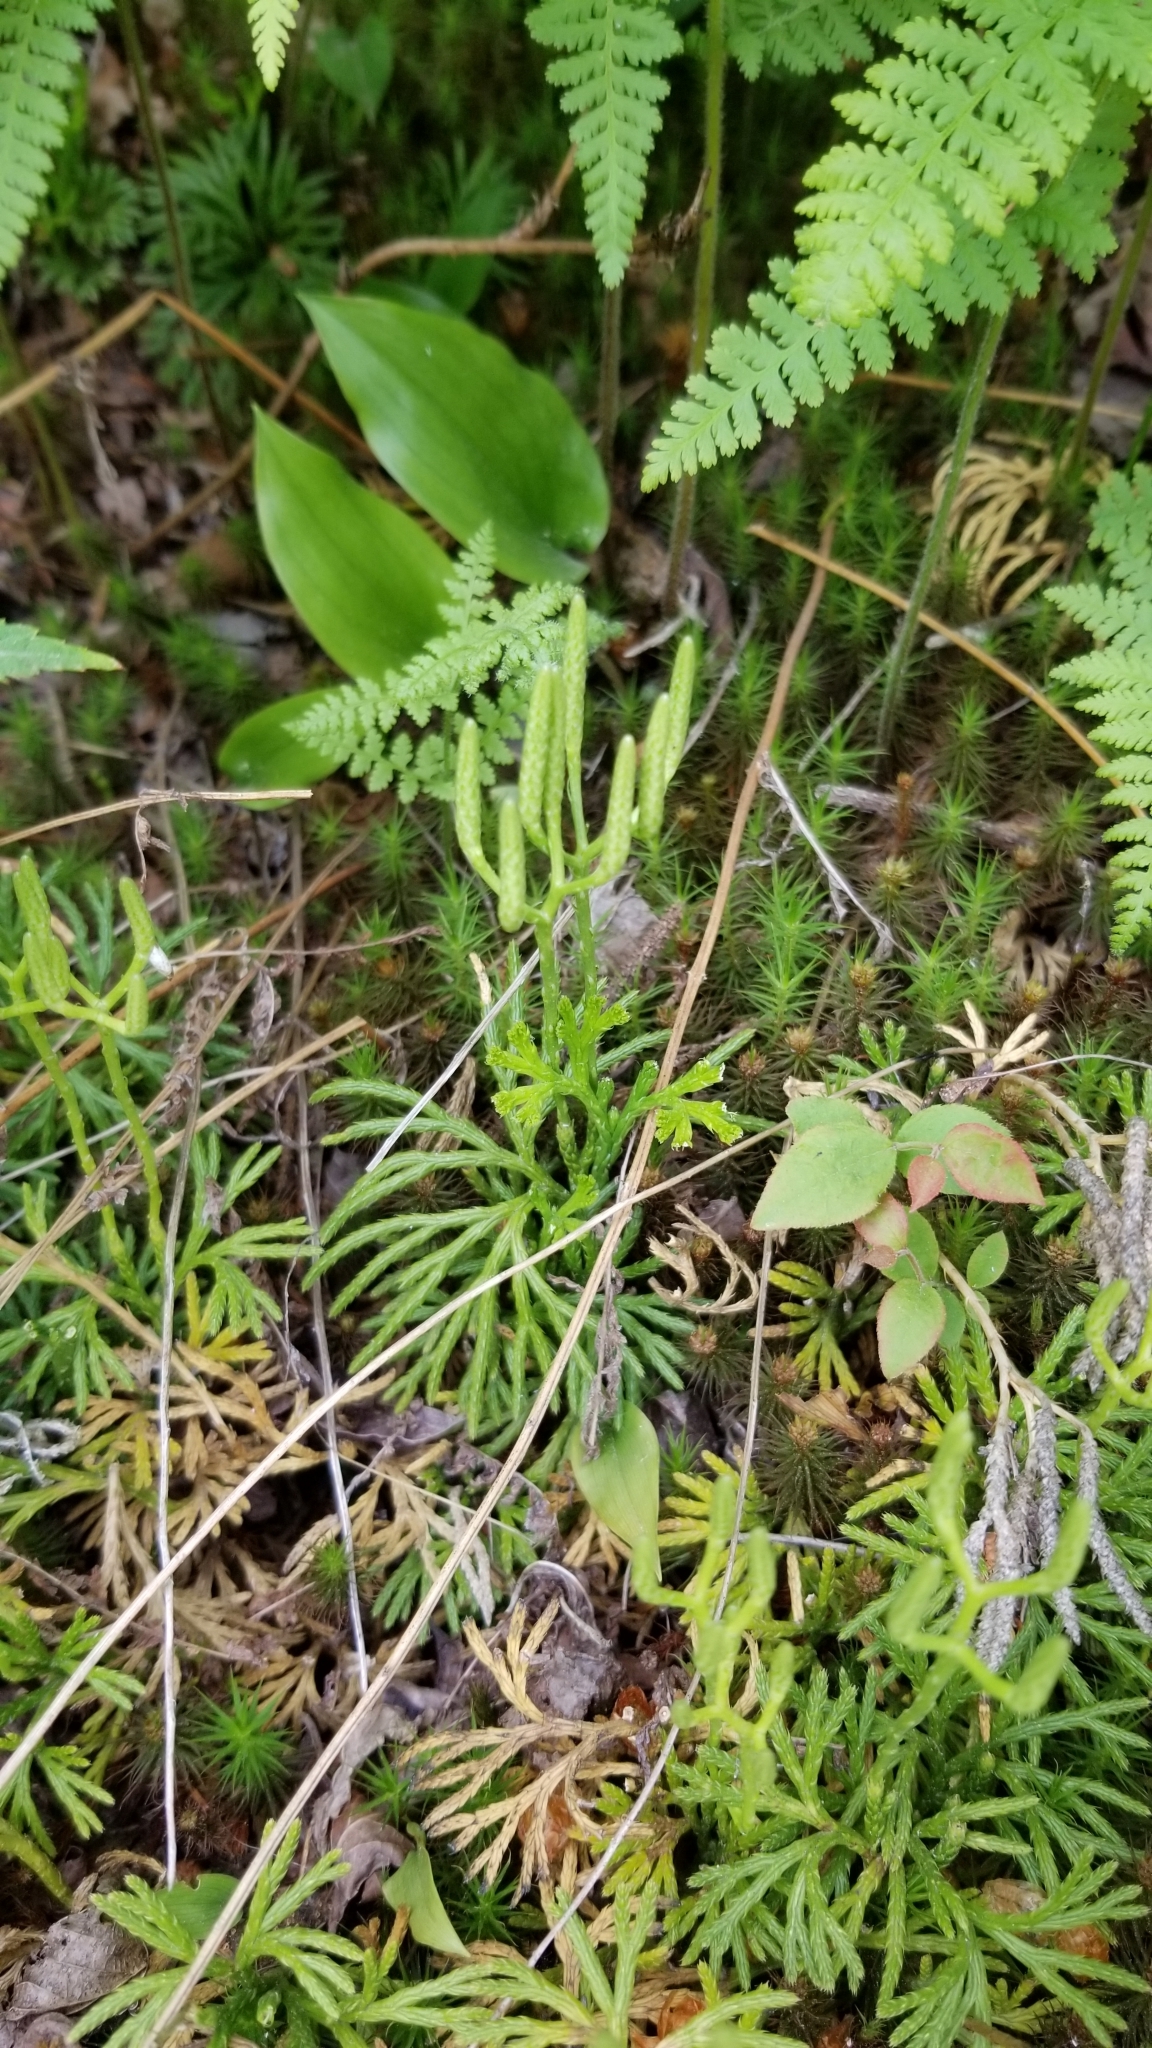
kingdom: Plantae
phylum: Tracheophyta
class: Lycopodiopsida
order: Lycopodiales
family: Lycopodiaceae
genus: Diphasiastrum
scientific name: Diphasiastrum digitatum
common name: Southern running-pine
